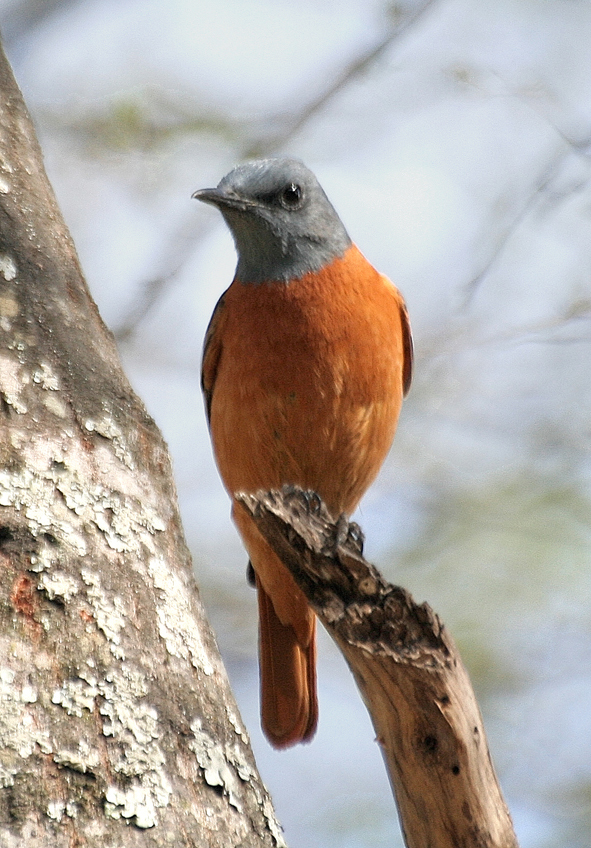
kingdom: Animalia
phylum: Chordata
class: Aves
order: Passeriformes
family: Muscicapidae
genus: Monticola
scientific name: Monticola rupestris
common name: Cape rock thrush
